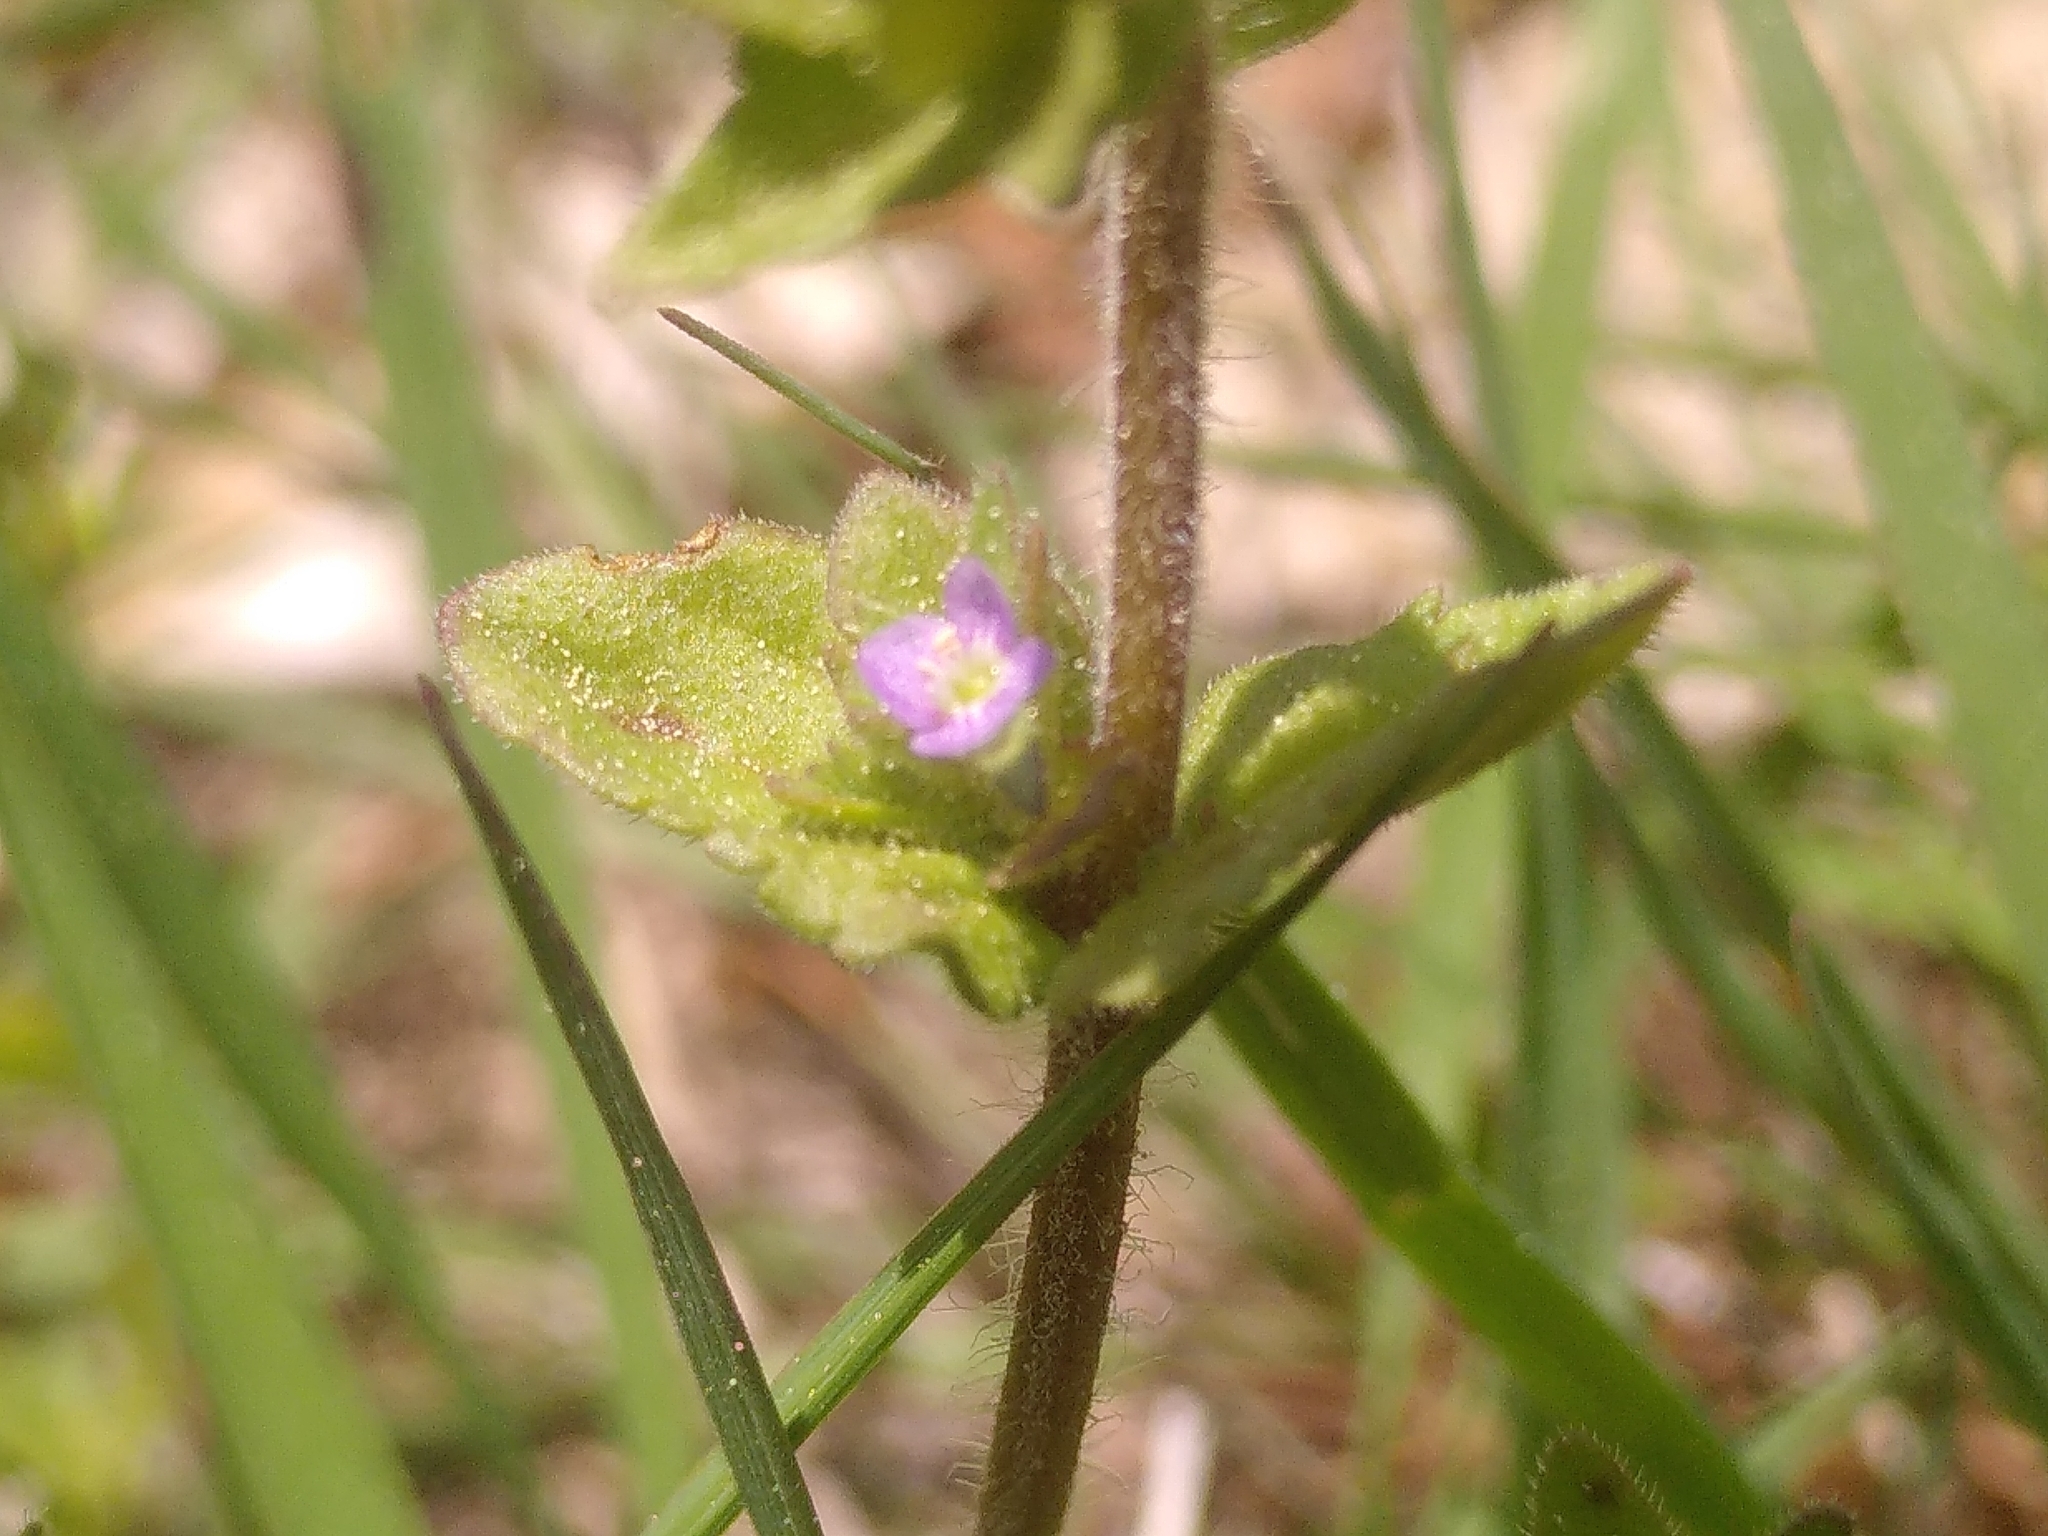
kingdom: Plantae
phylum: Tracheophyta
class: Magnoliopsida
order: Lamiales
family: Plantaginaceae
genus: Veronica
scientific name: Veronica arvensis
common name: Corn speedwell
